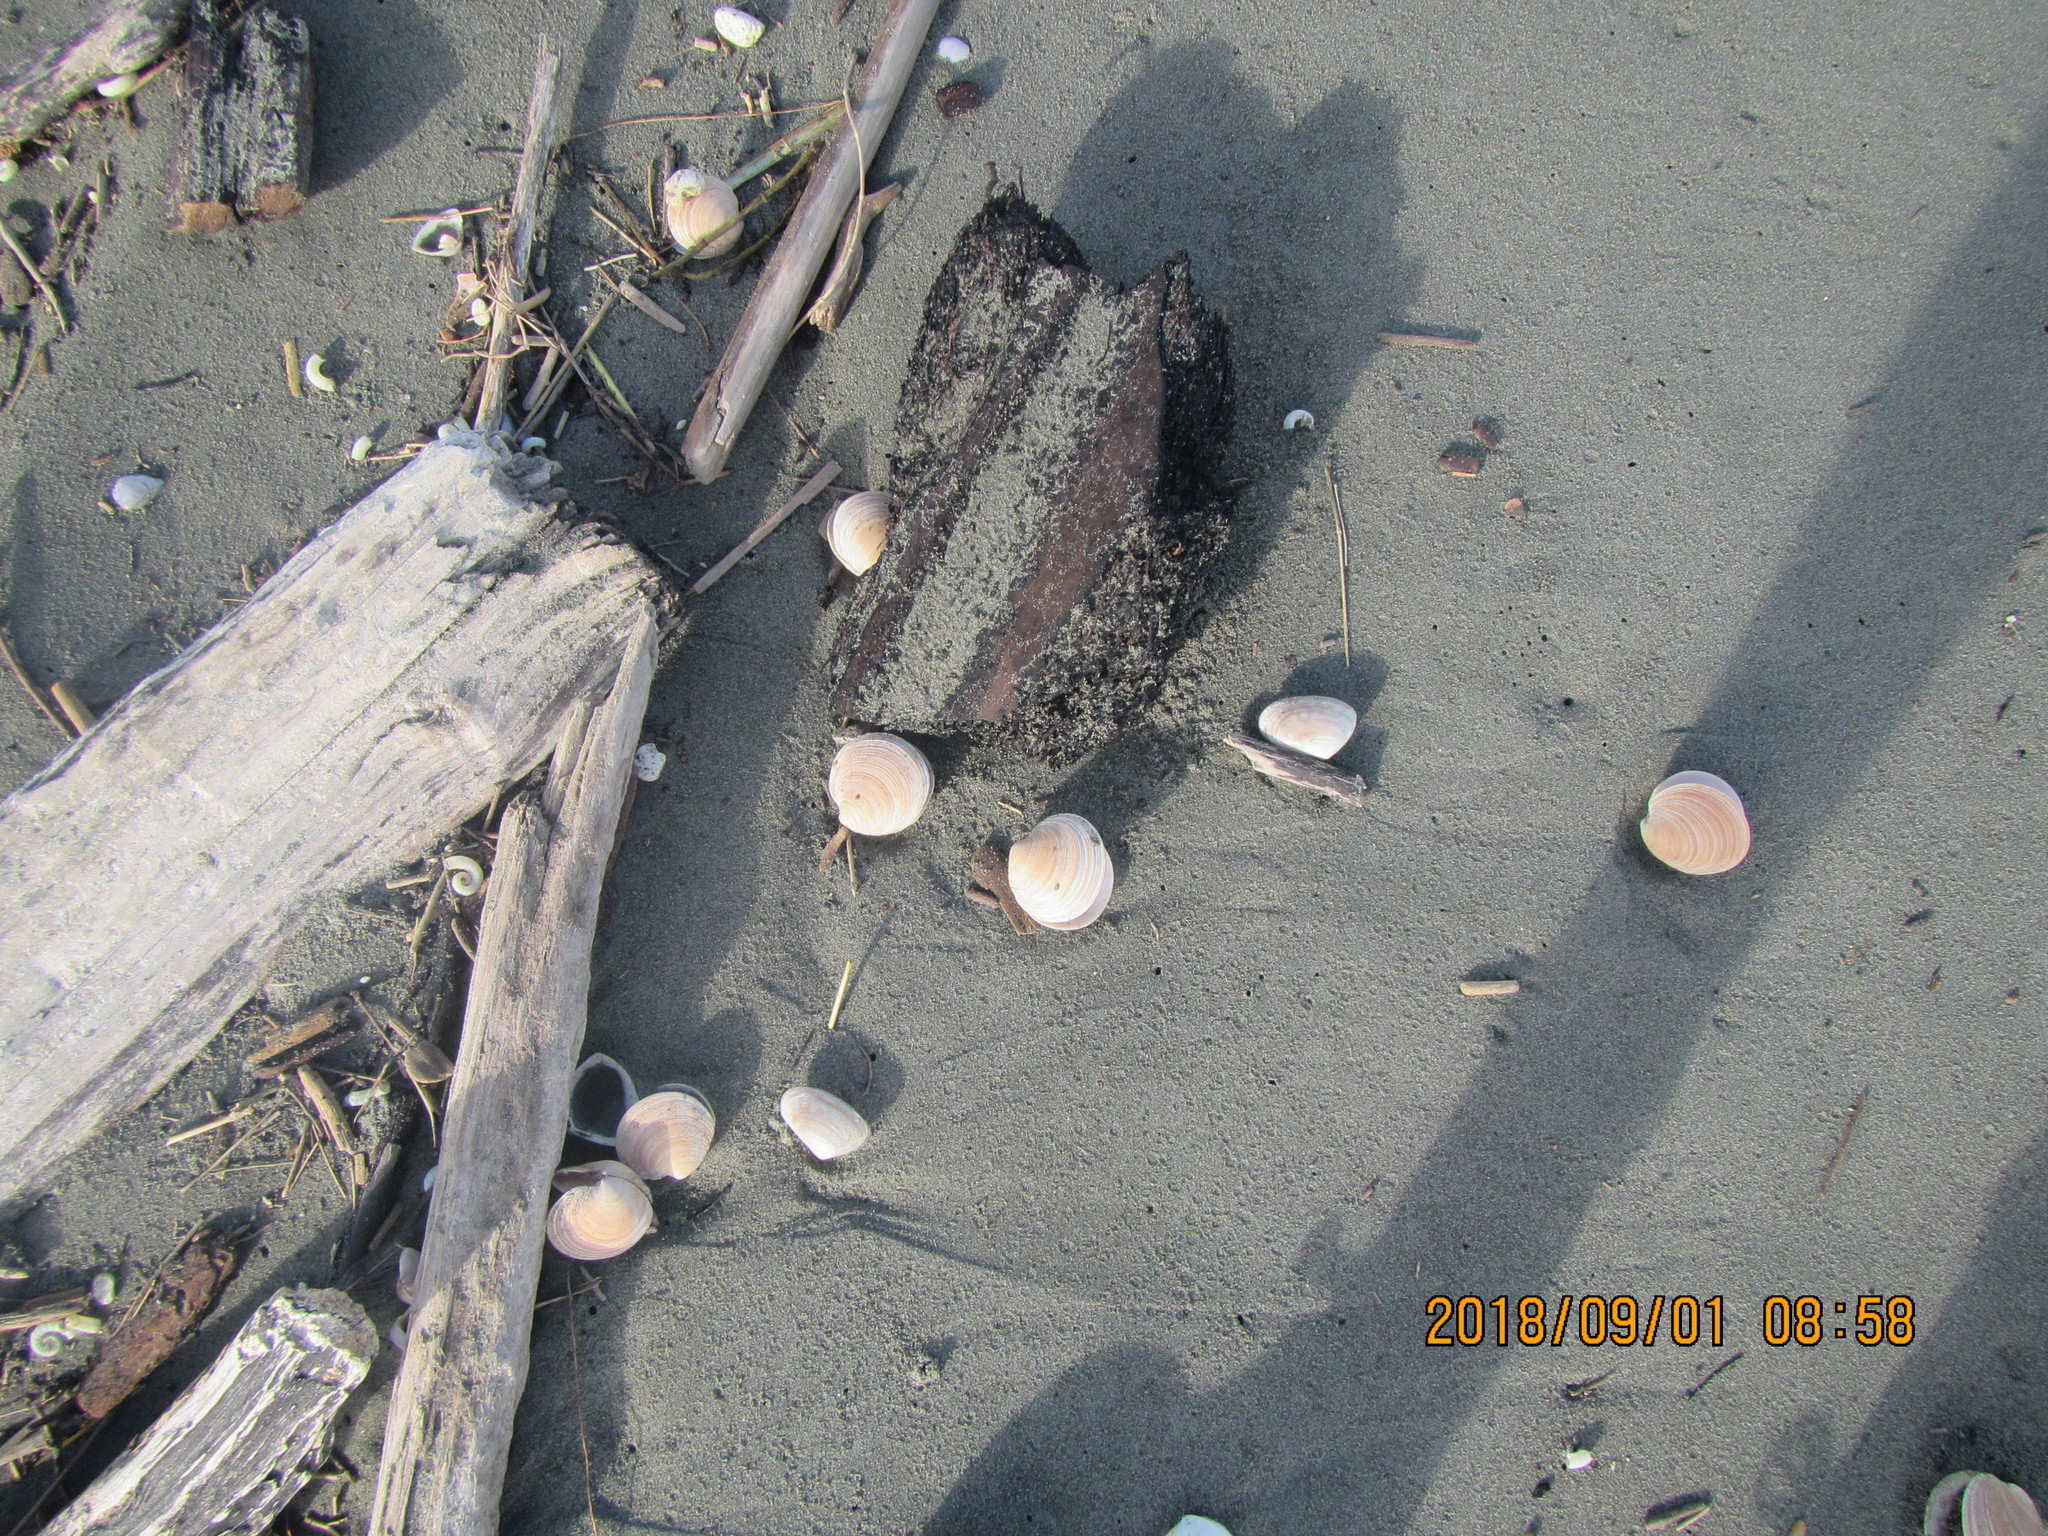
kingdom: Animalia
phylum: Mollusca
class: Bivalvia
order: Venerida
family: Veneridae
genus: Dosinia
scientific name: Dosinia anus
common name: Old-woman dosinia
